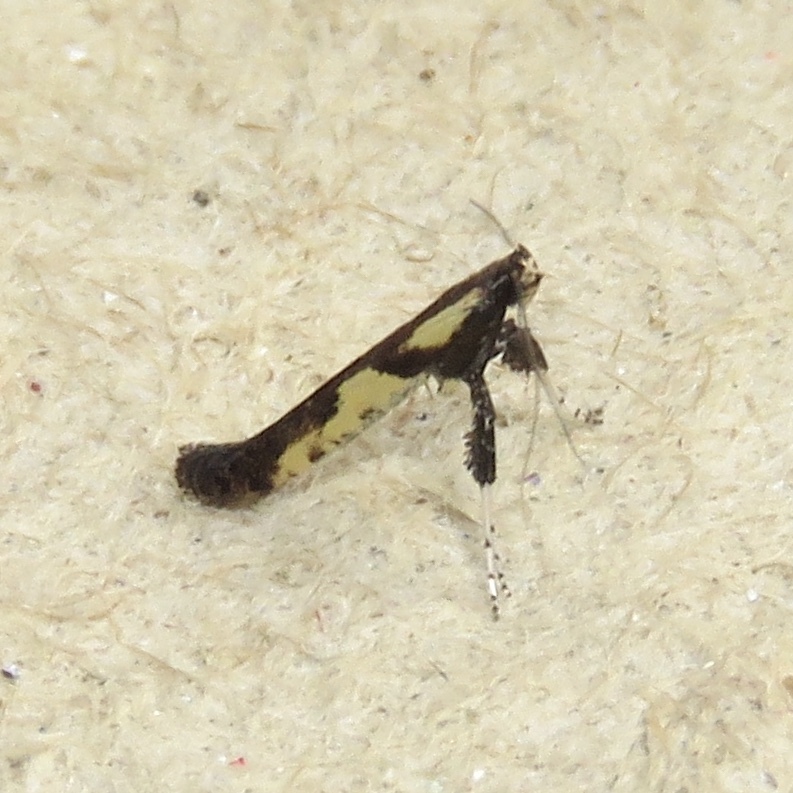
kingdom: Animalia
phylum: Arthropoda
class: Insecta
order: Lepidoptera
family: Gracillariidae
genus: Caloptilia
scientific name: Caloptilia blandella
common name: Walnut caloptilia moth
